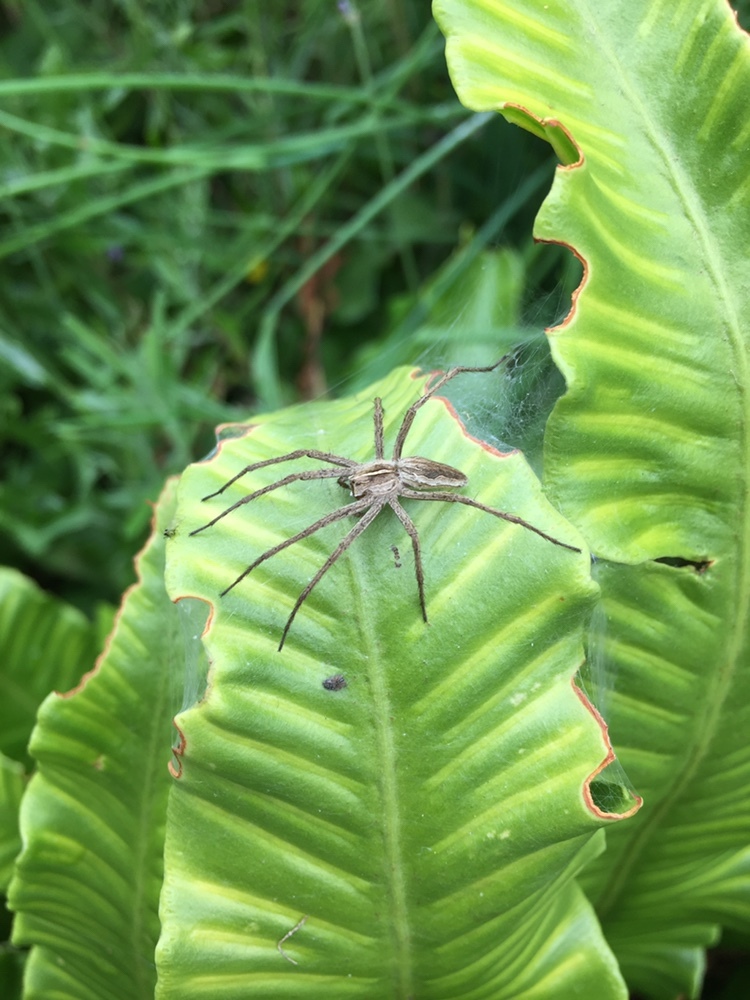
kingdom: Animalia
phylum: Arthropoda
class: Arachnida
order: Araneae
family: Pisauridae
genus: Pisaura
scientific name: Pisaura mirabilis
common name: Tent spider
